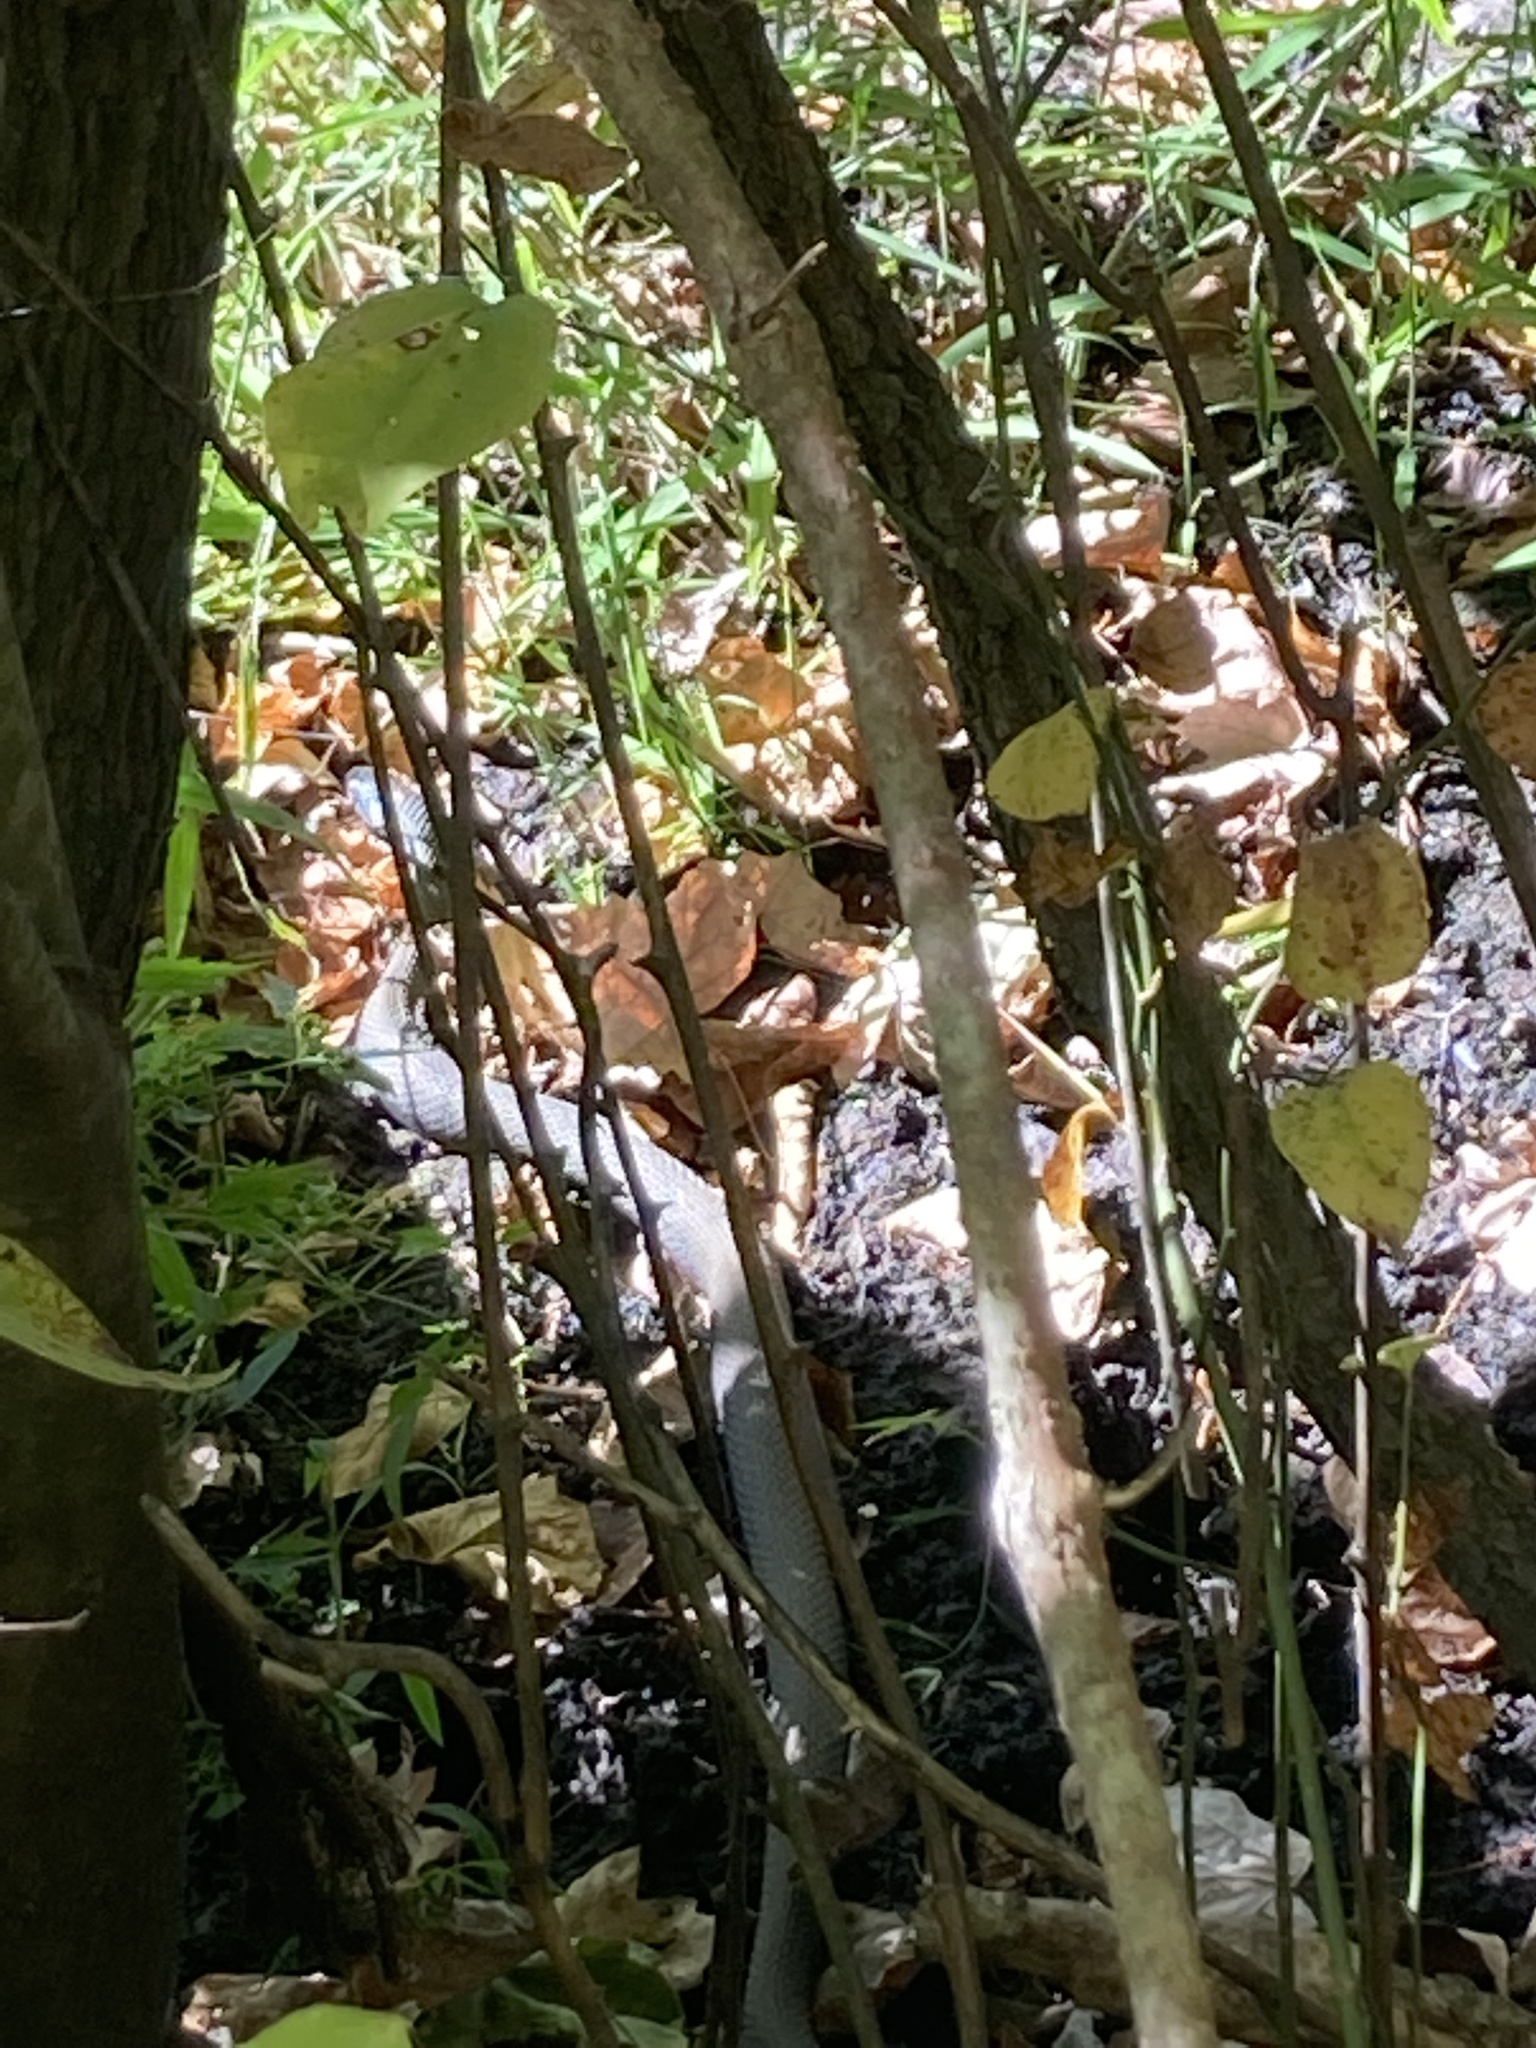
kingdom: Animalia
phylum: Chordata
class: Squamata
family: Colubridae
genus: Nerodia
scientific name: Nerodia erythrogaster
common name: Plainbelly water snake
